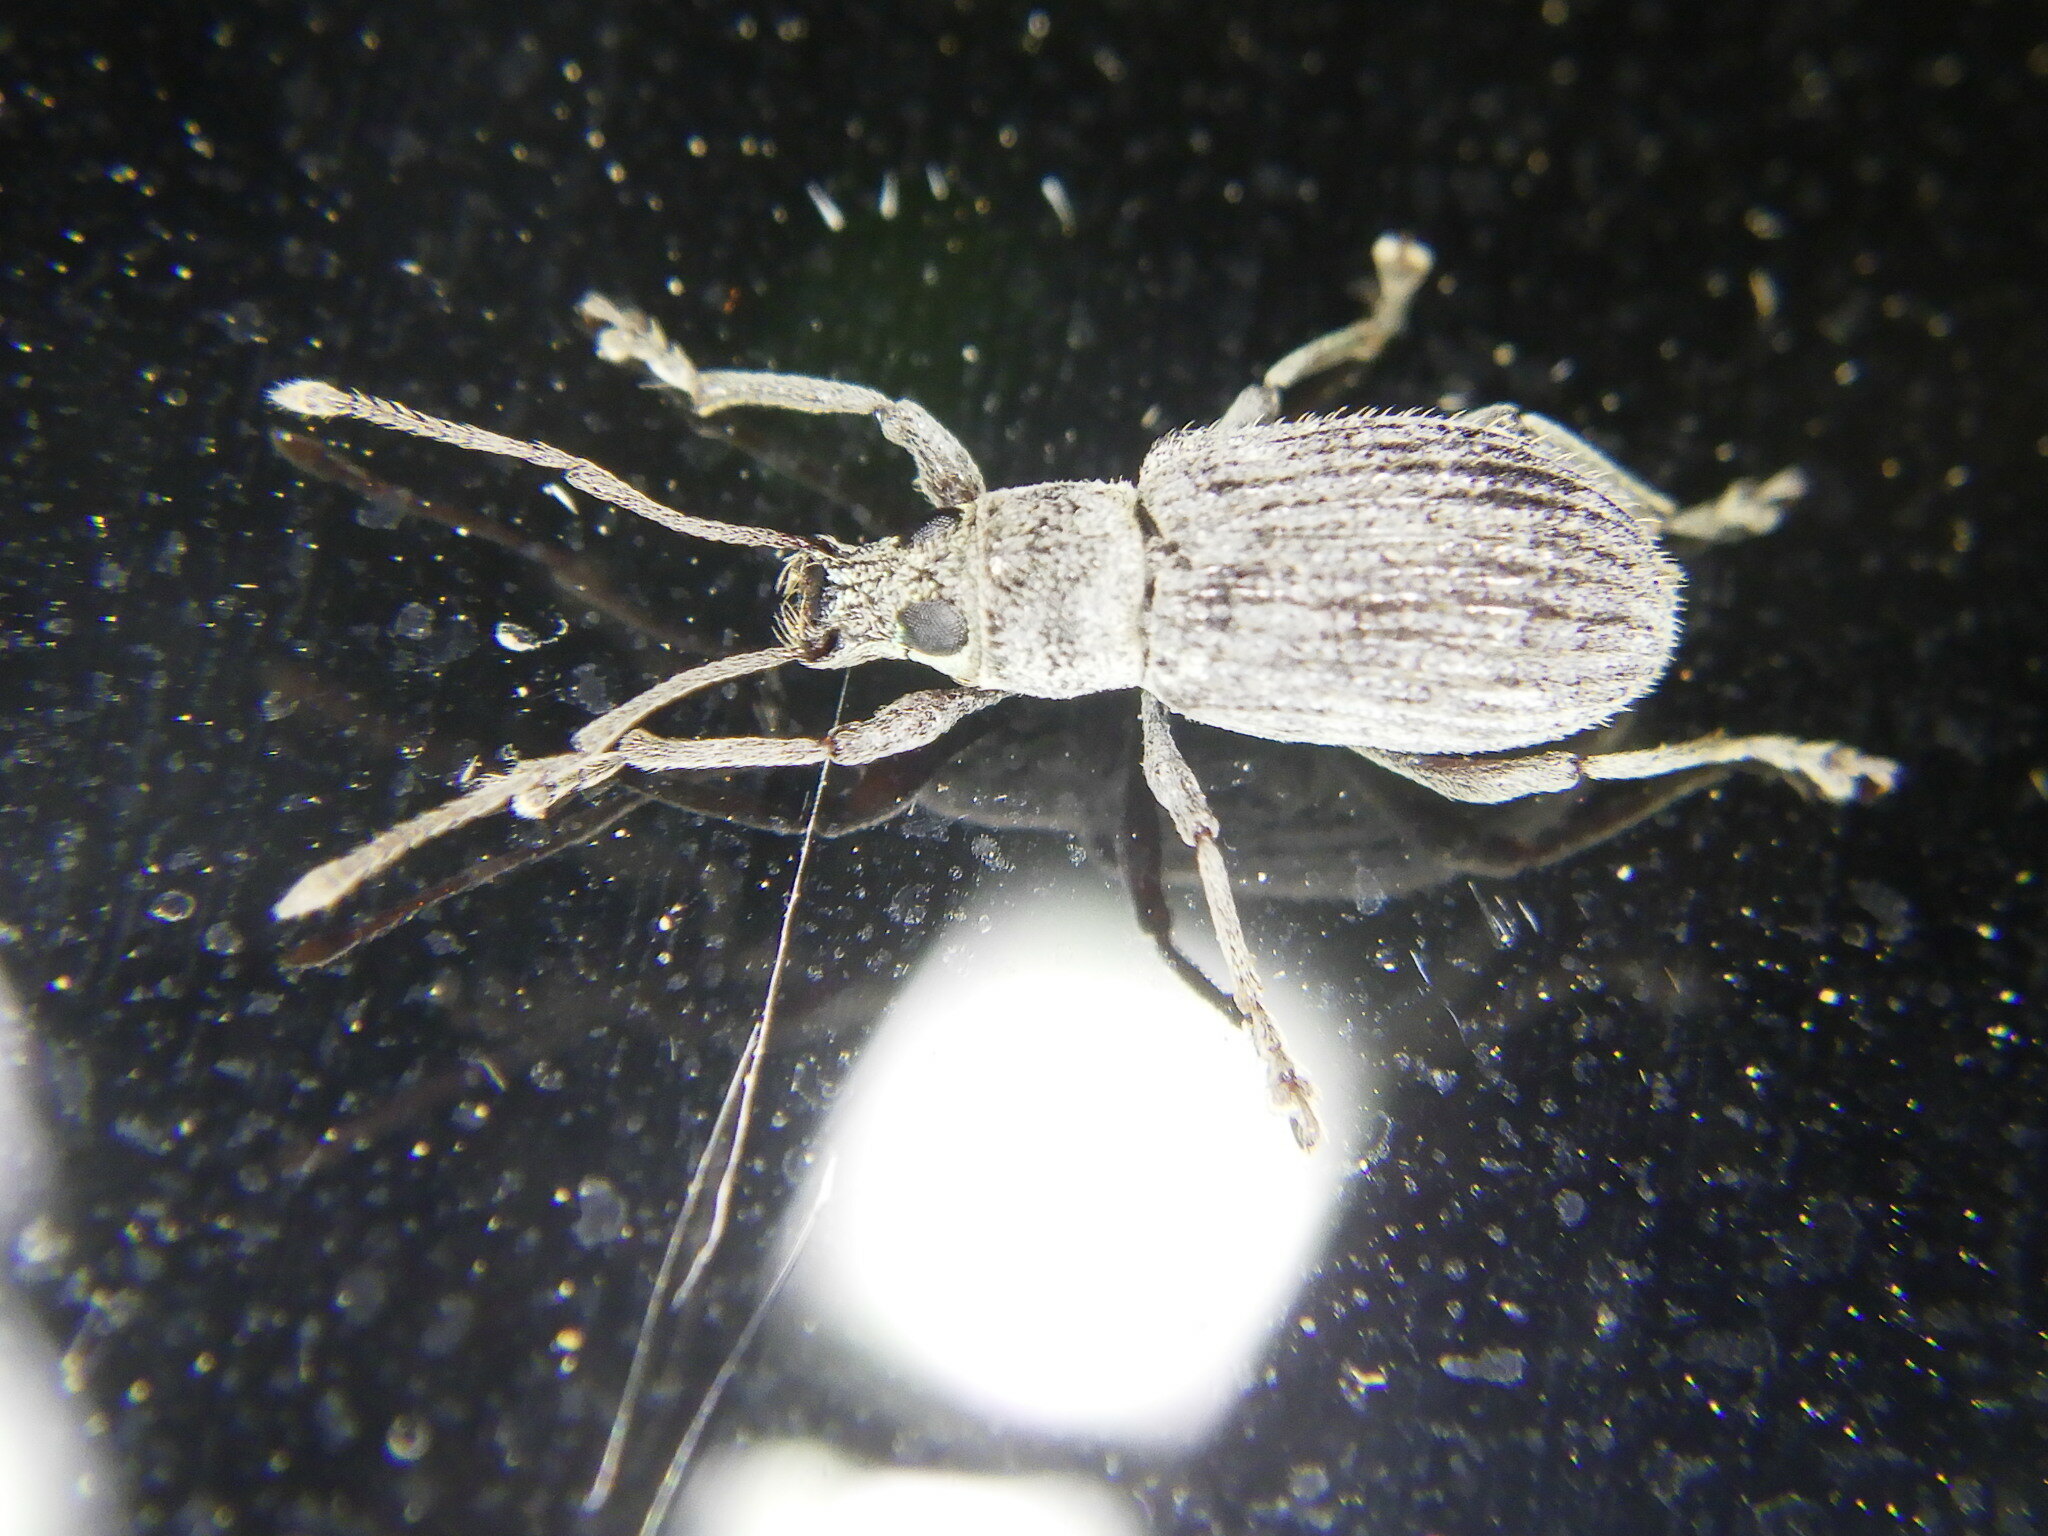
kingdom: Animalia
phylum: Arthropoda
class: Insecta
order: Coleoptera
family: Curculionidae
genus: Cyrtepistomus
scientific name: Cyrtepistomus castaneus
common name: Weevil
